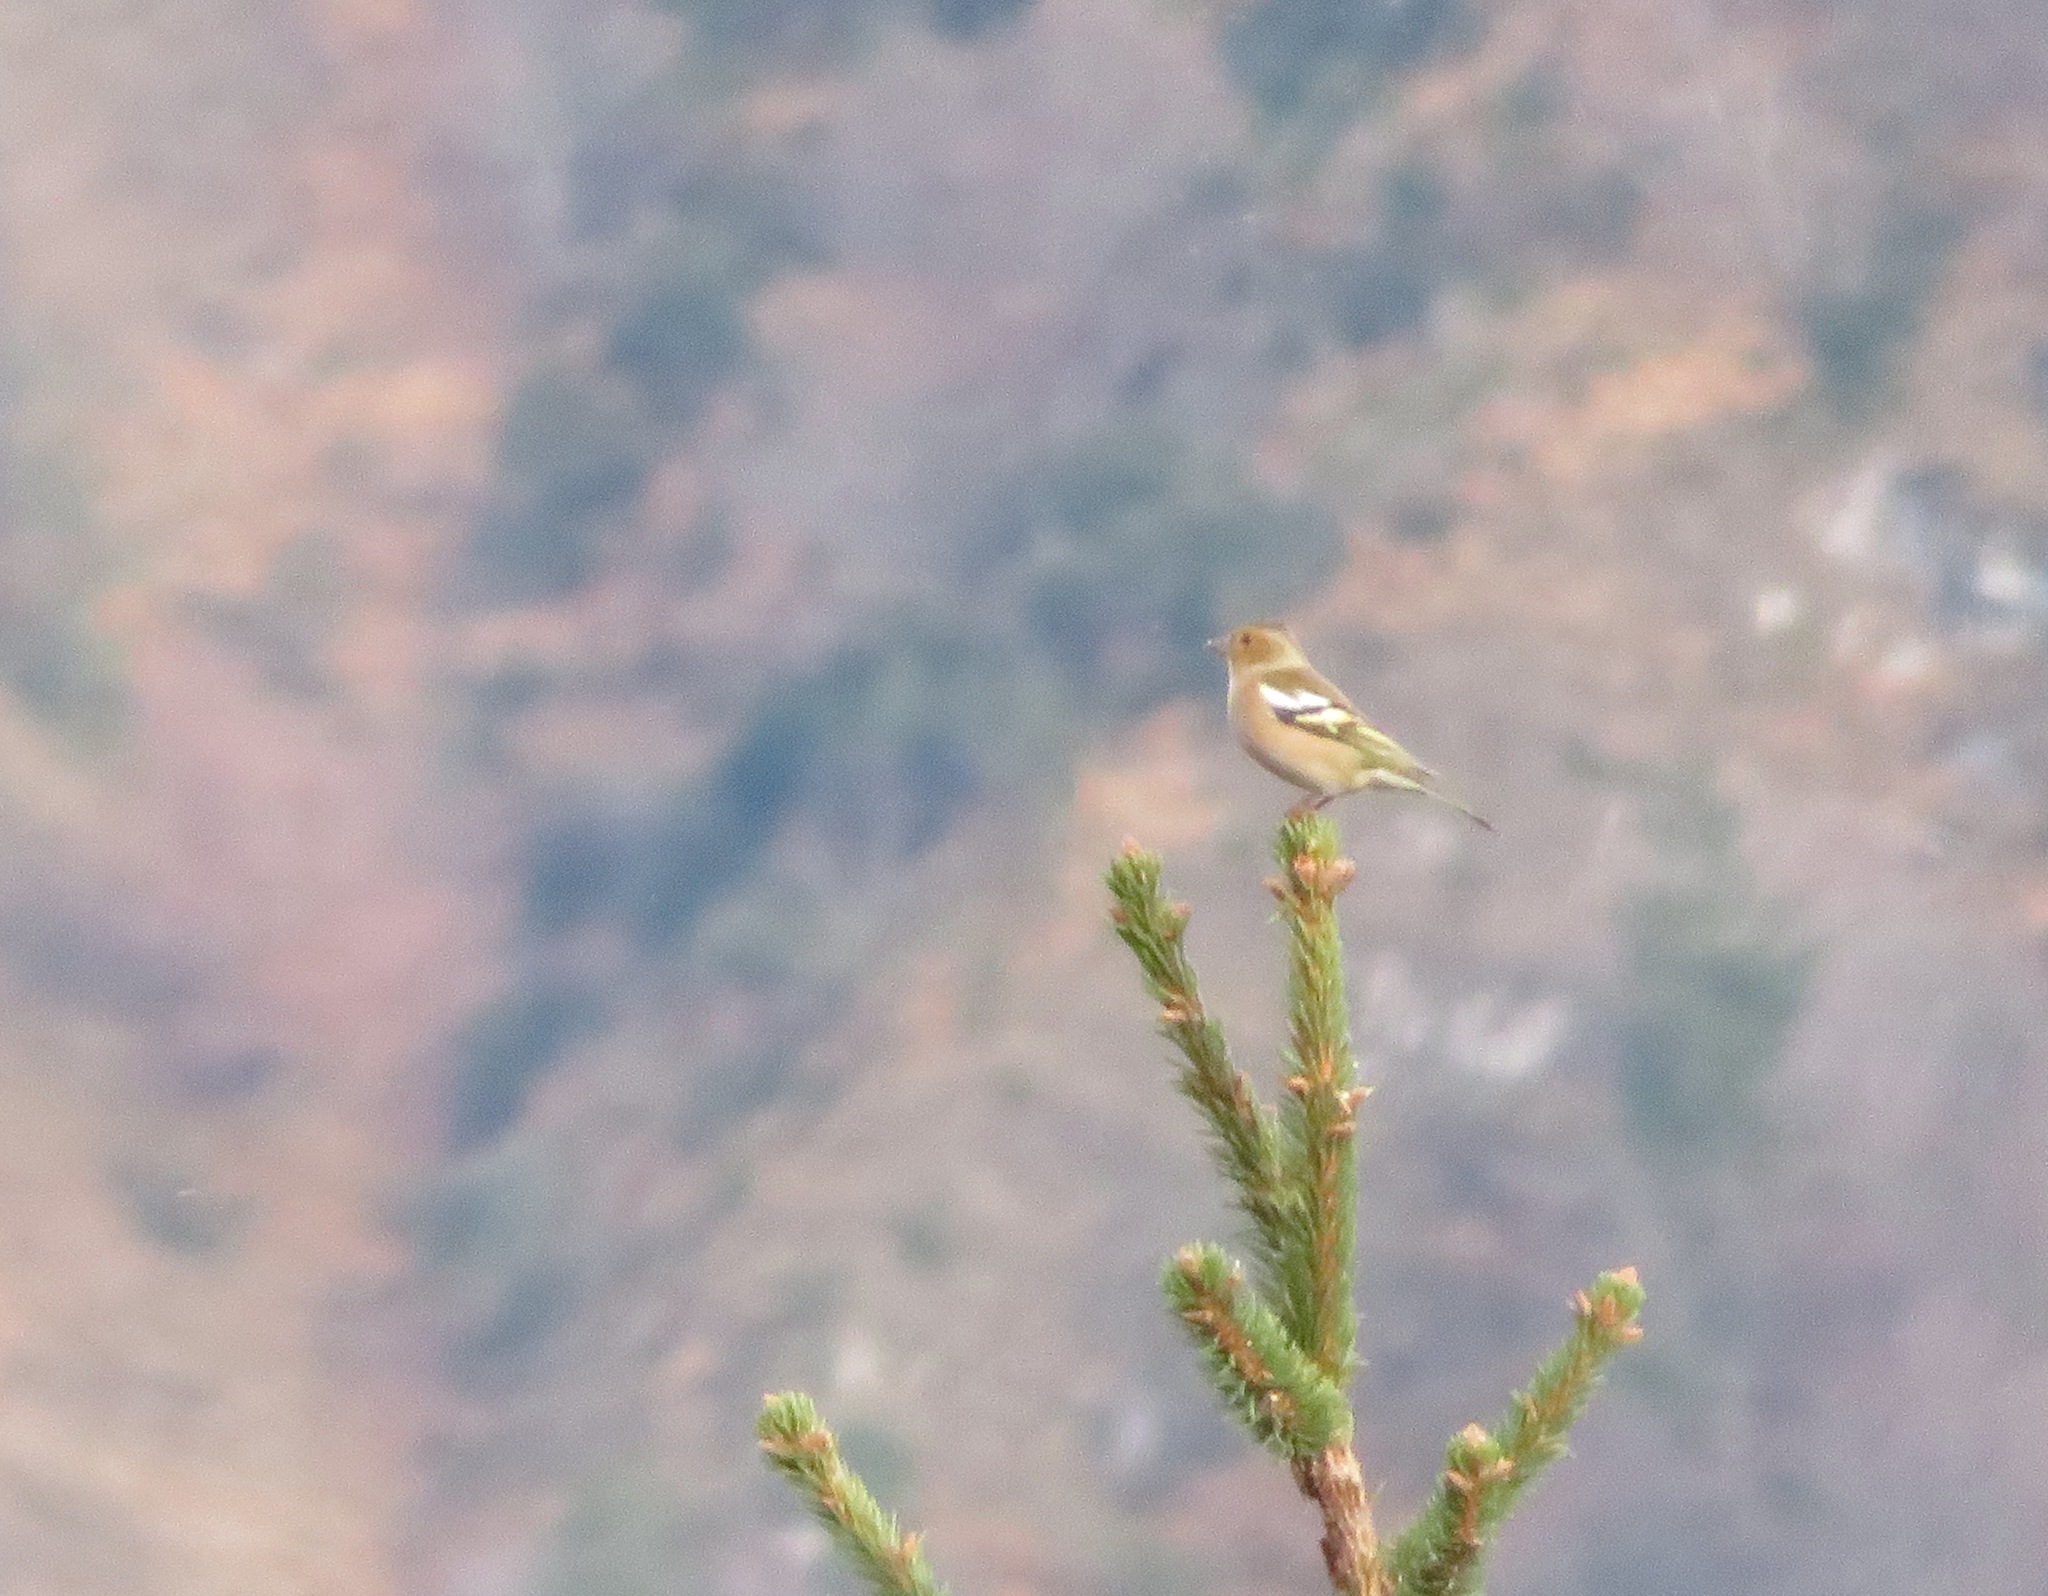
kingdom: Animalia
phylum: Chordata
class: Aves
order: Passeriformes
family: Fringillidae
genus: Fringilla
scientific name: Fringilla coelebs
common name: Common chaffinch
